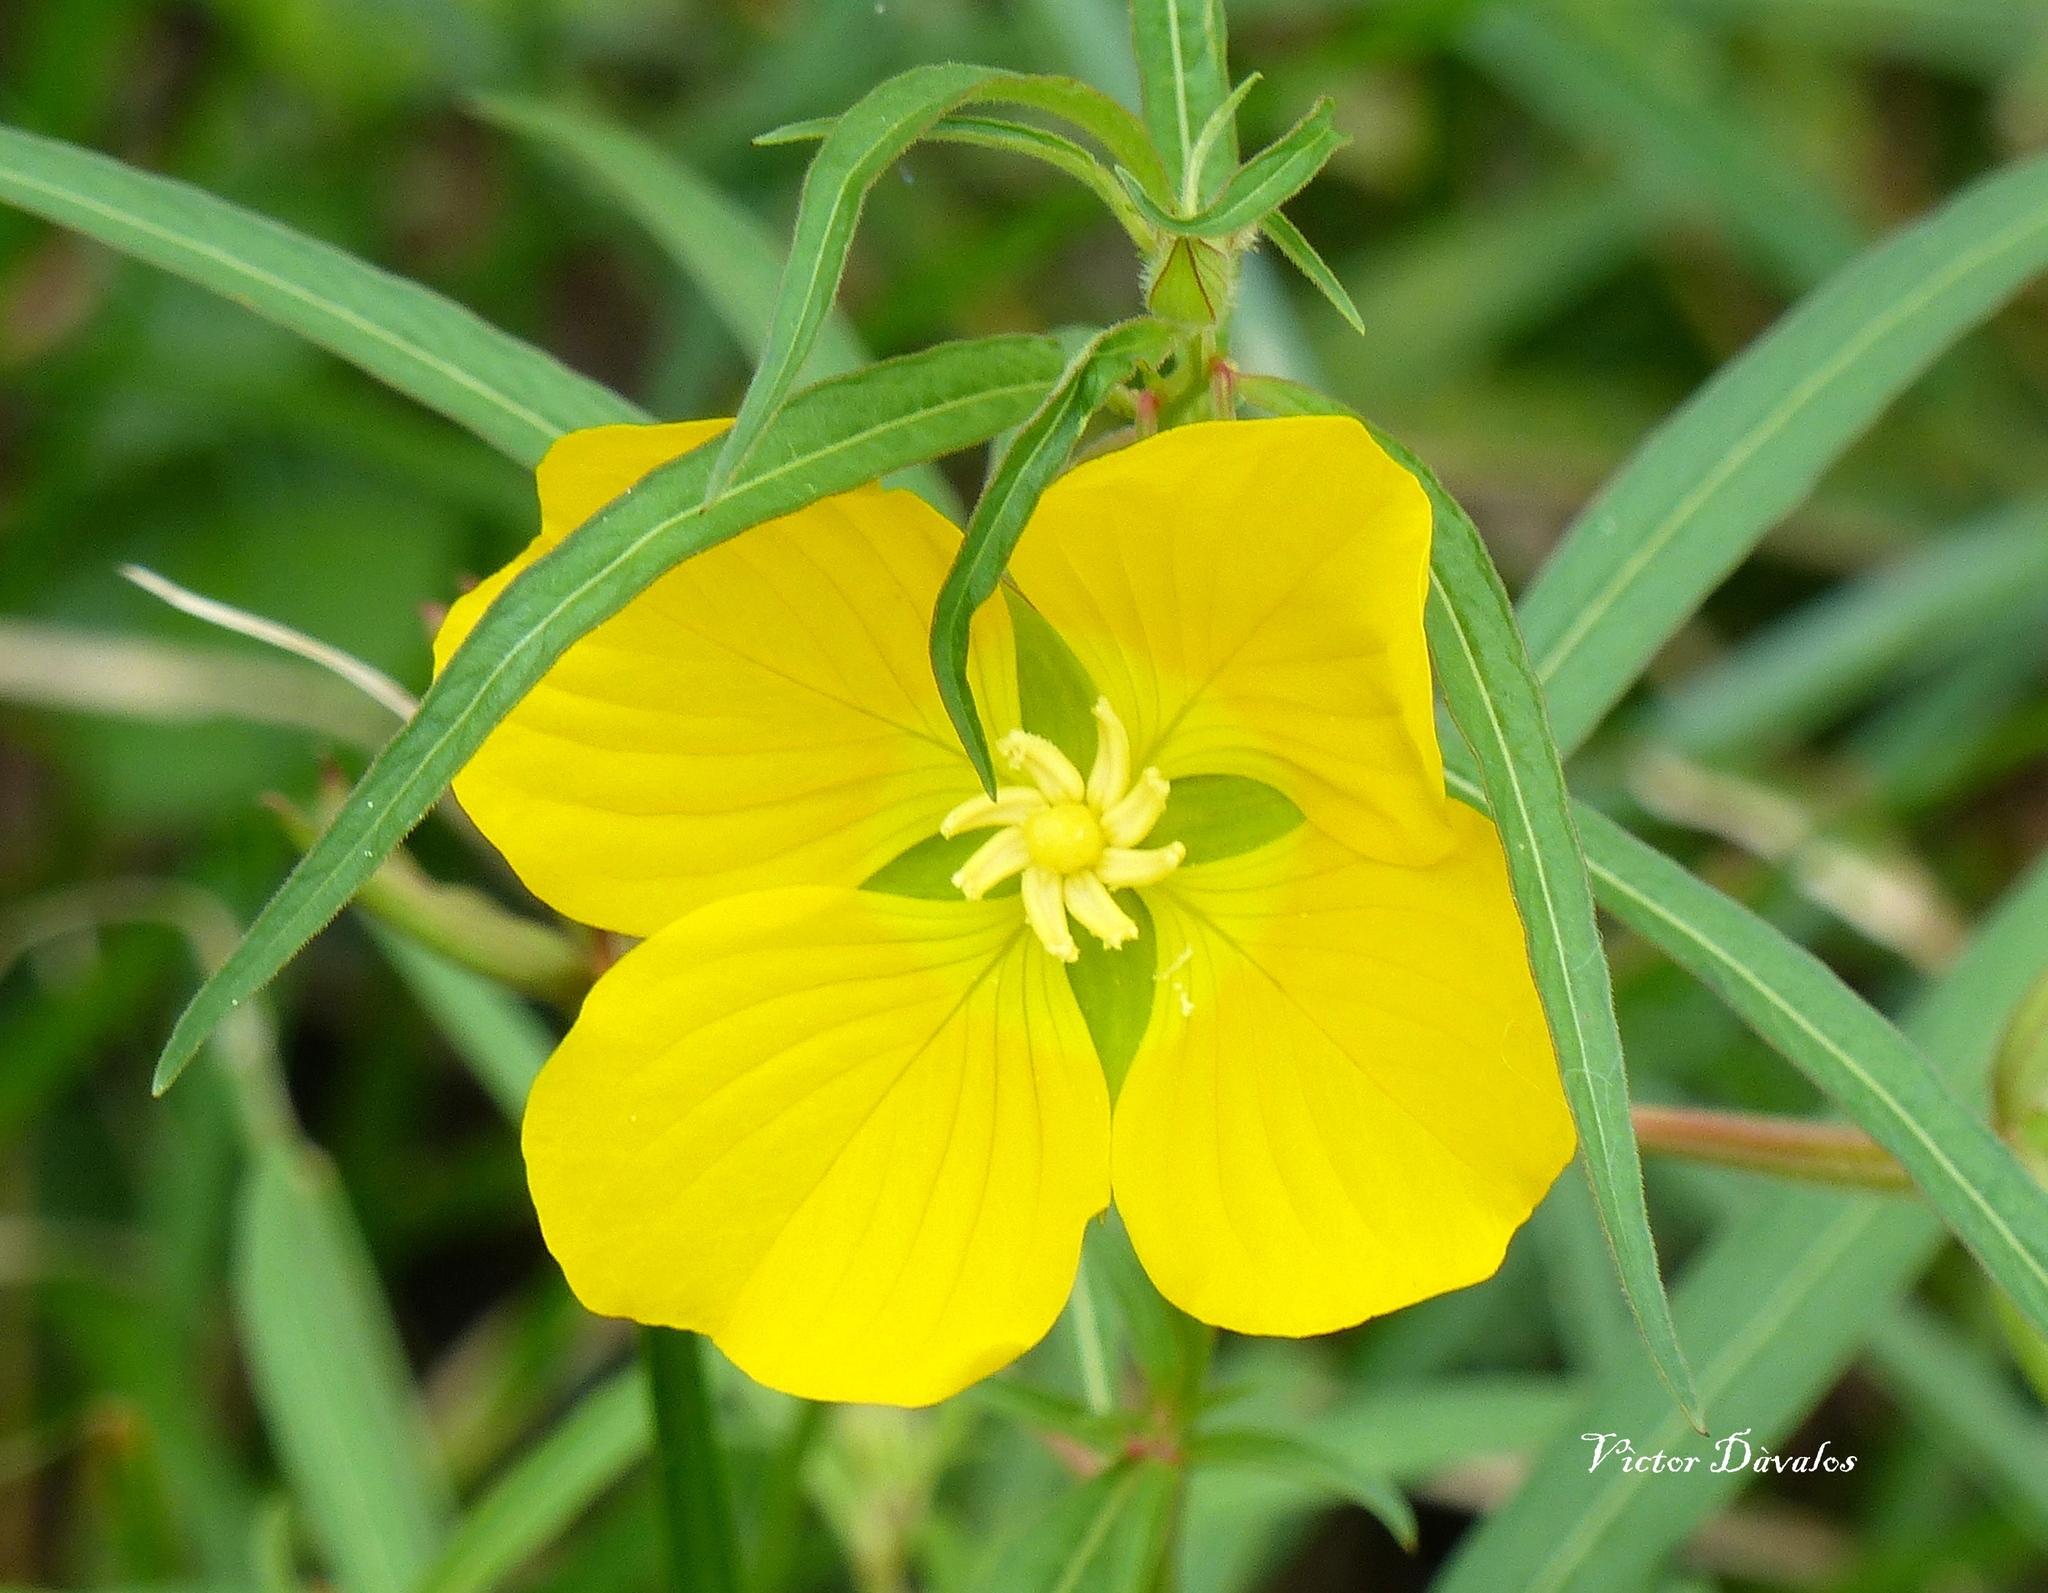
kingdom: Plantae
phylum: Tracheophyta
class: Magnoliopsida
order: Myrtales
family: Onagraceae
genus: Ludwigia
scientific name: Ludwigia bonariensis
